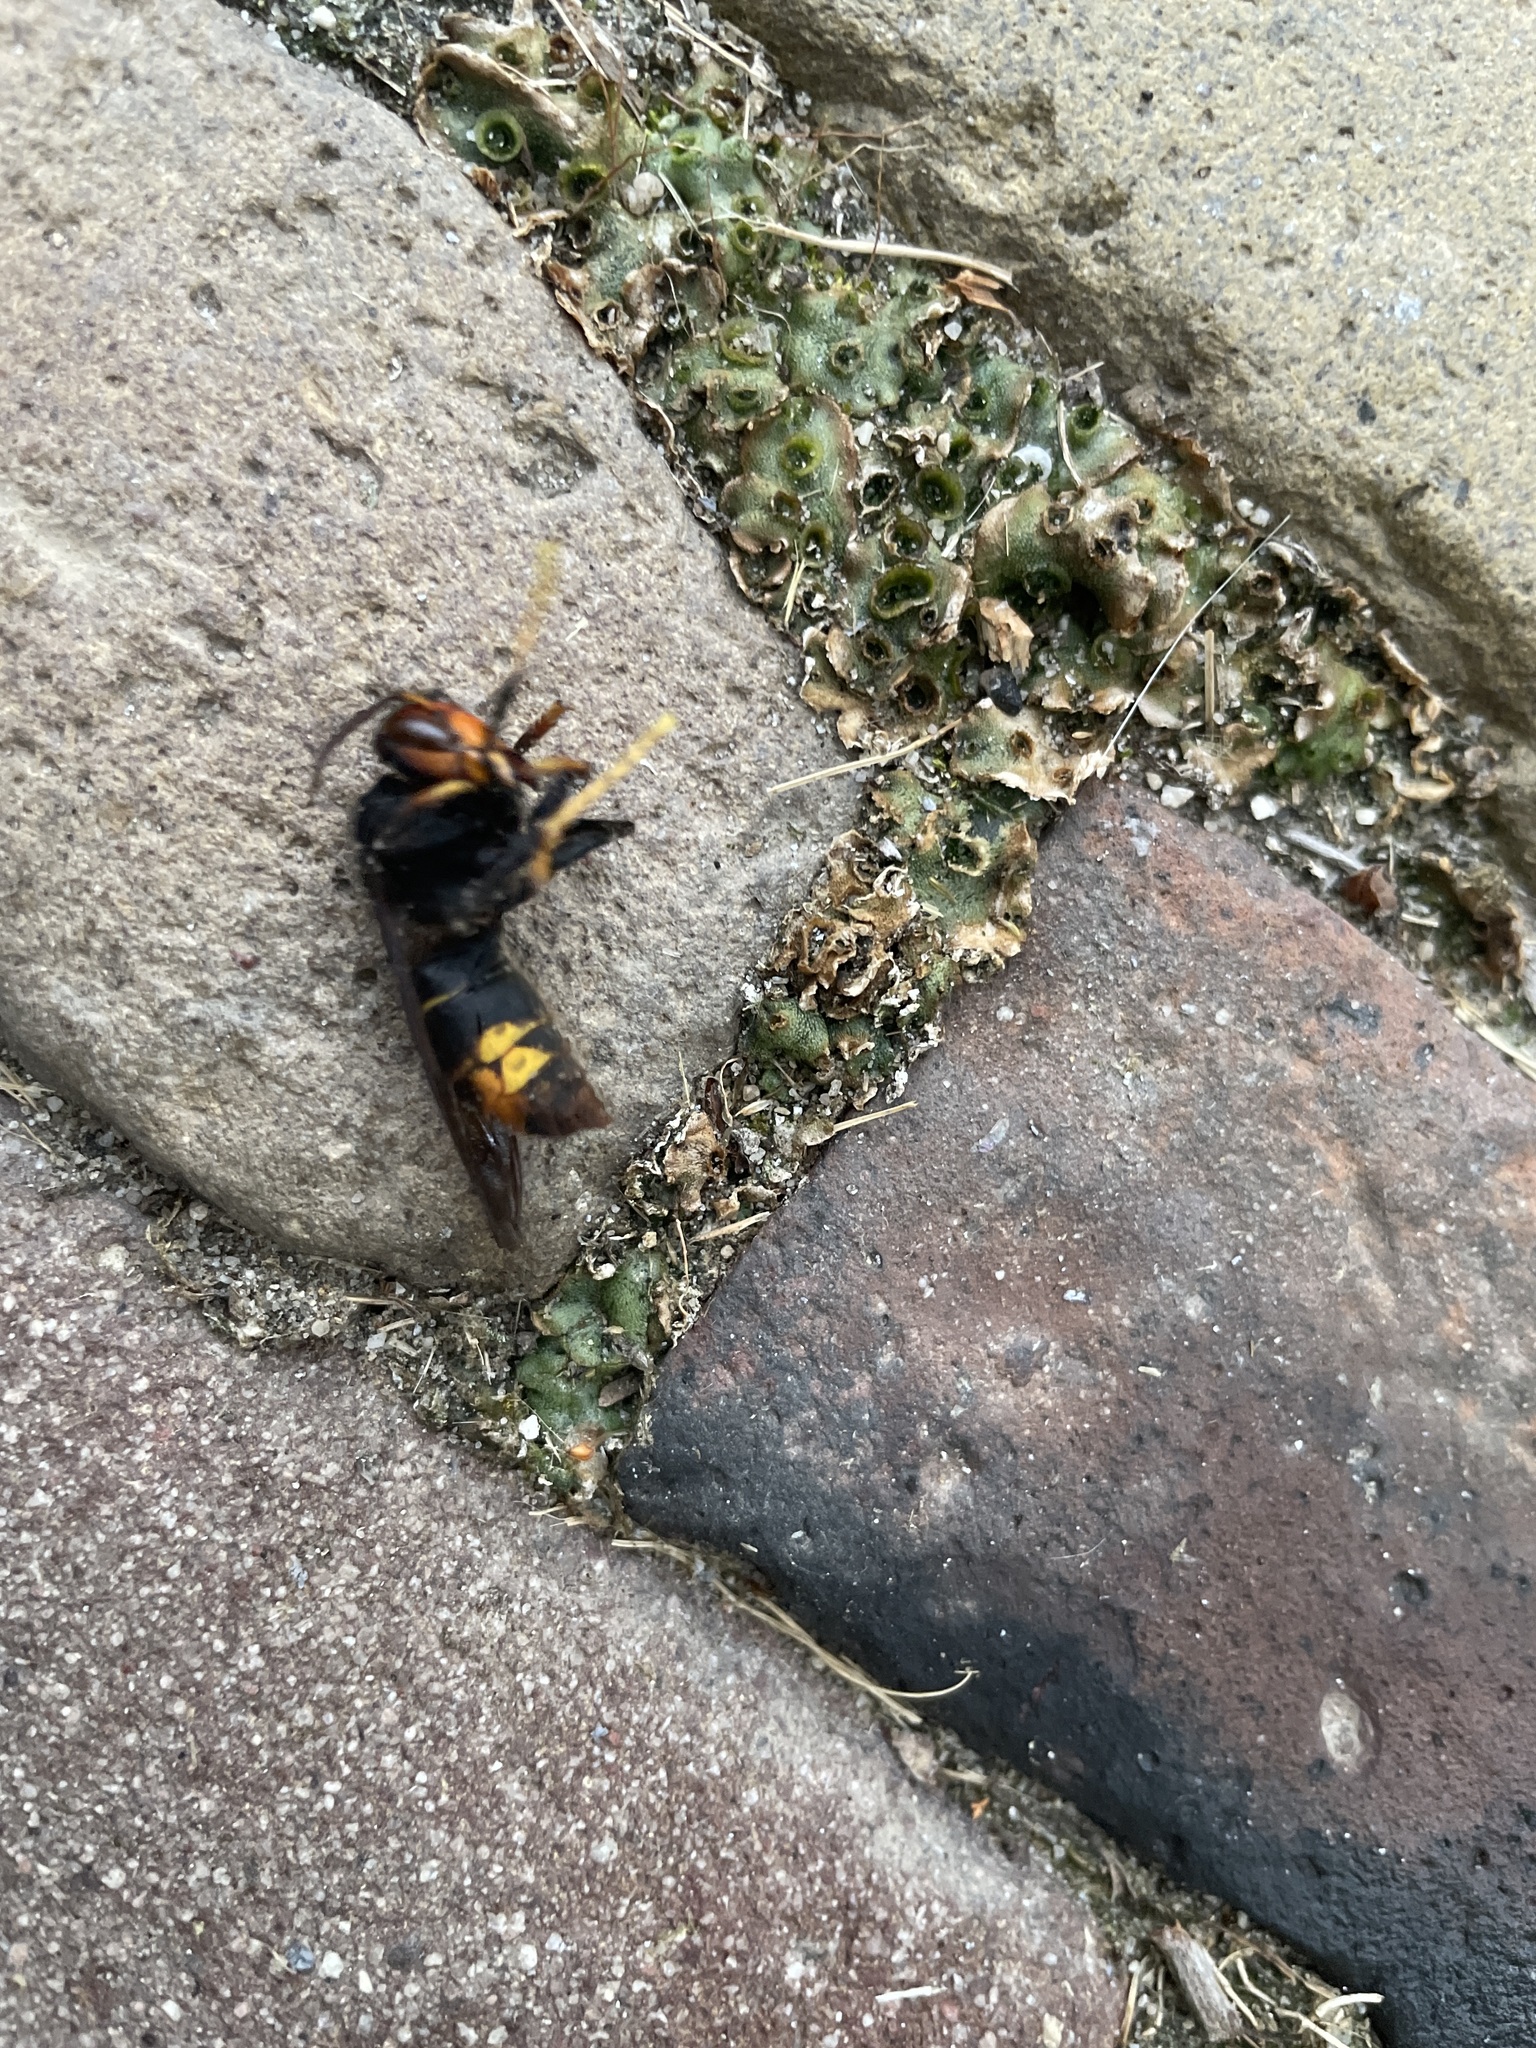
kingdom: Animalia
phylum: Arthropoda
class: Insecta
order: Hymenoptera
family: Vespidae
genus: Vespa
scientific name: Vespa velutina
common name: Asian hornet
